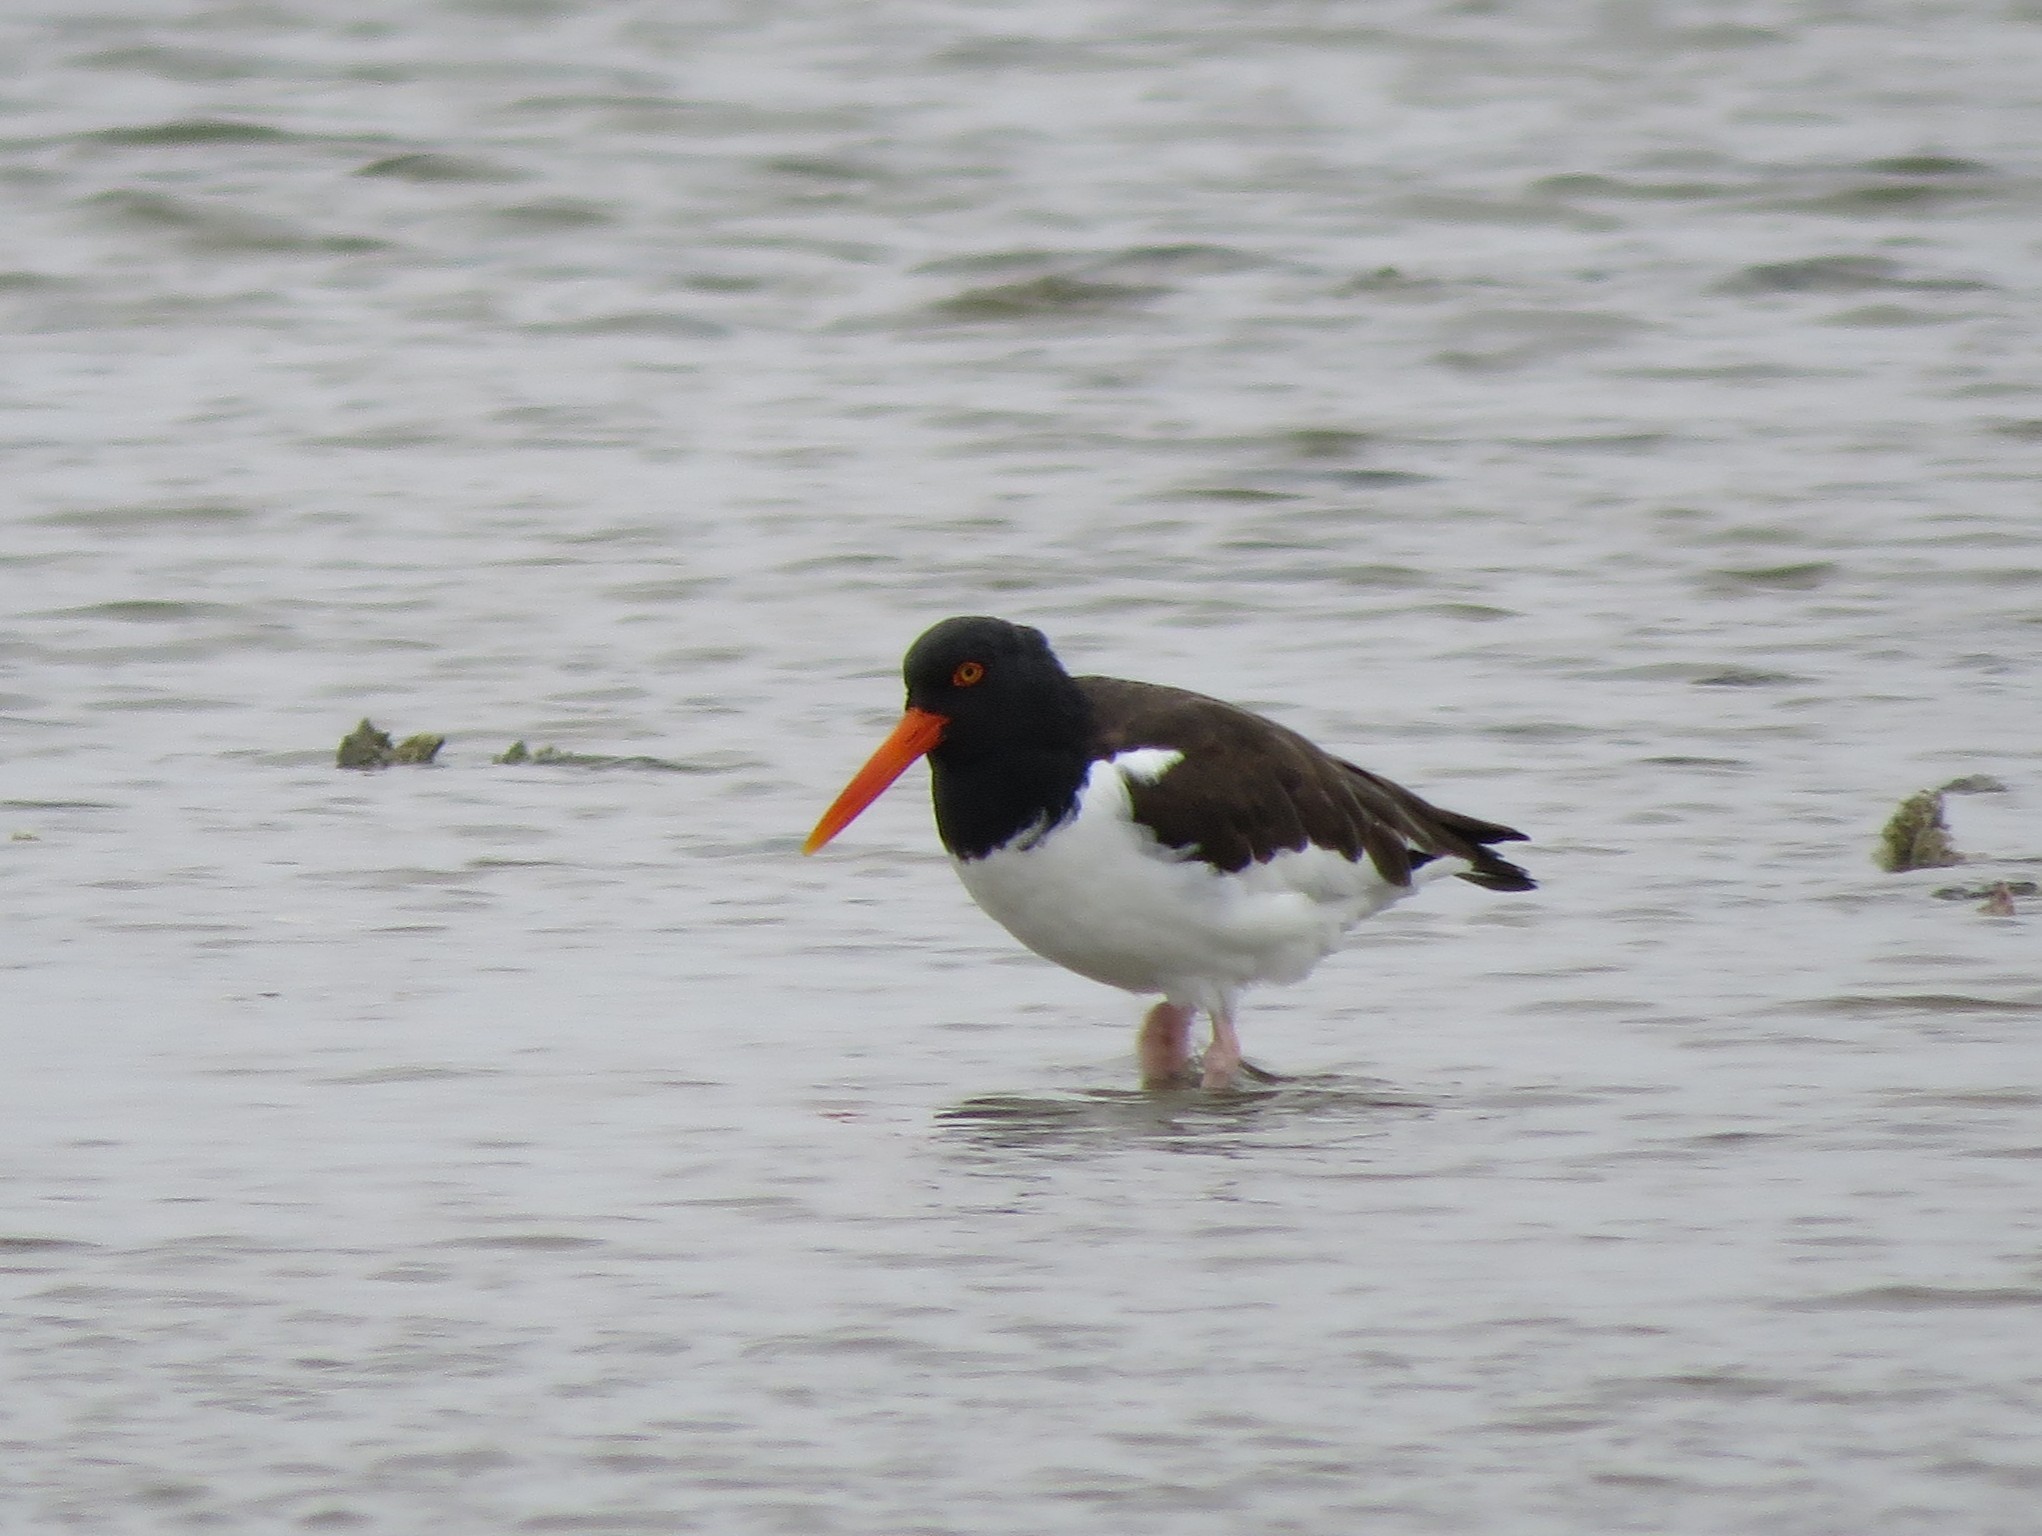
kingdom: Animalia
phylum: Chordata
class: Aves
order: Charadriiformes
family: Haematopodidae
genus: Haematopus
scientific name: Haematopus palliatus
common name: American oystercatcher
